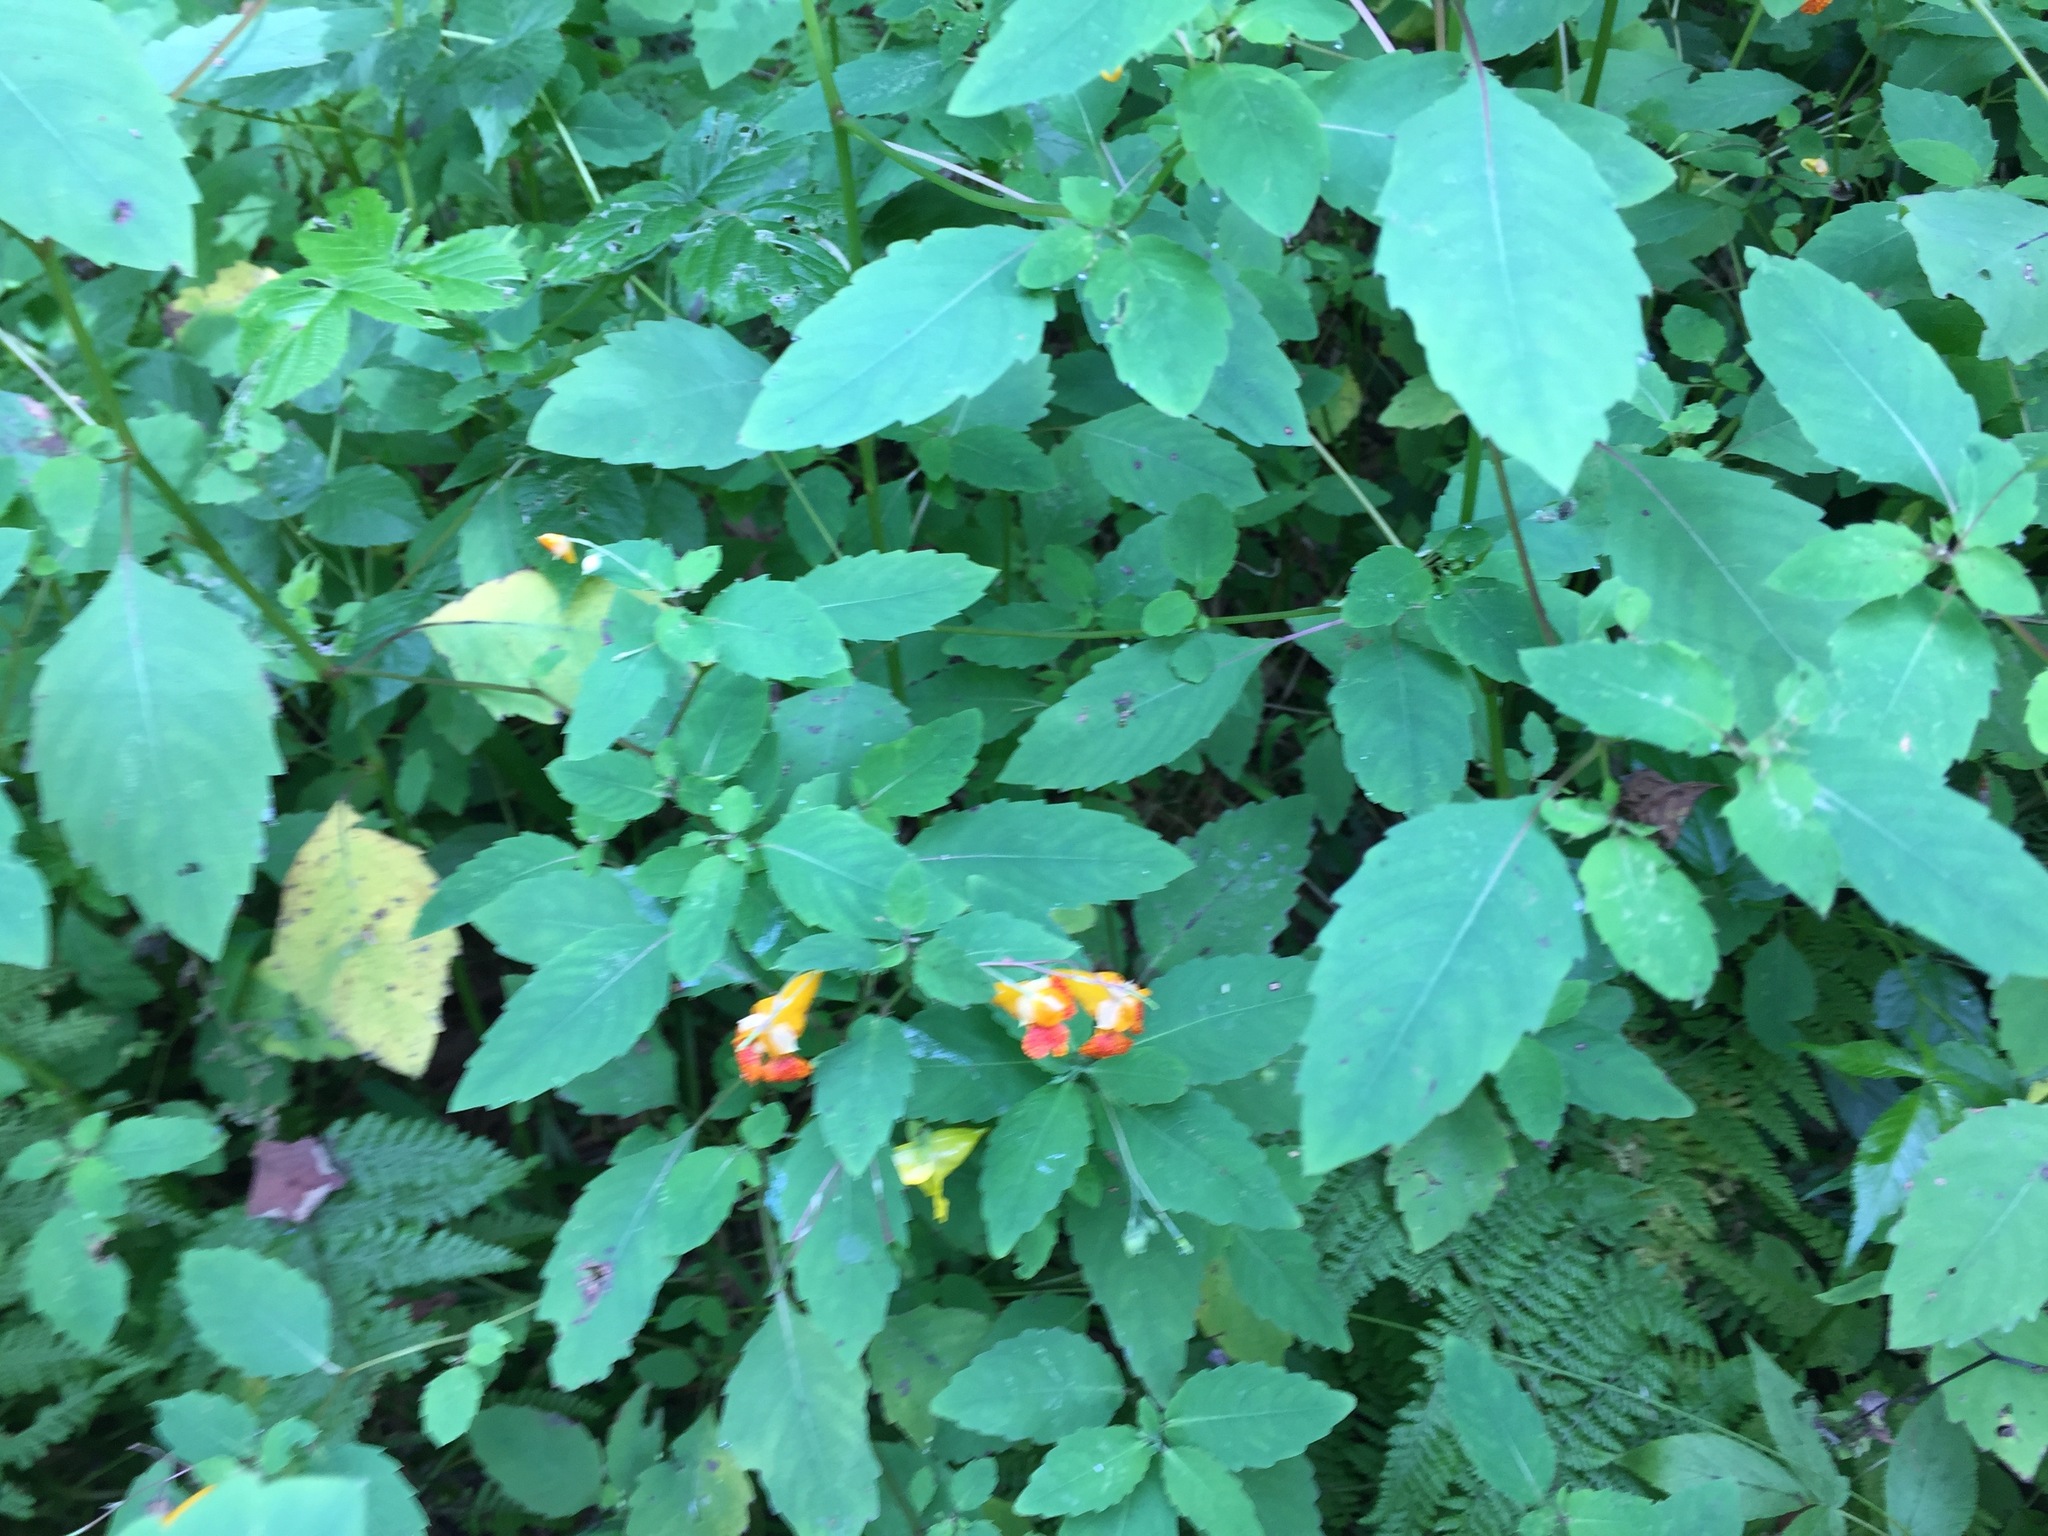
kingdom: Plantae
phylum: Tracheophyta
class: Magnoliopsida
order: Ericales
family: Balsaminaceae
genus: Impatiens
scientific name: Impatiens capensis
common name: Orange balsam
